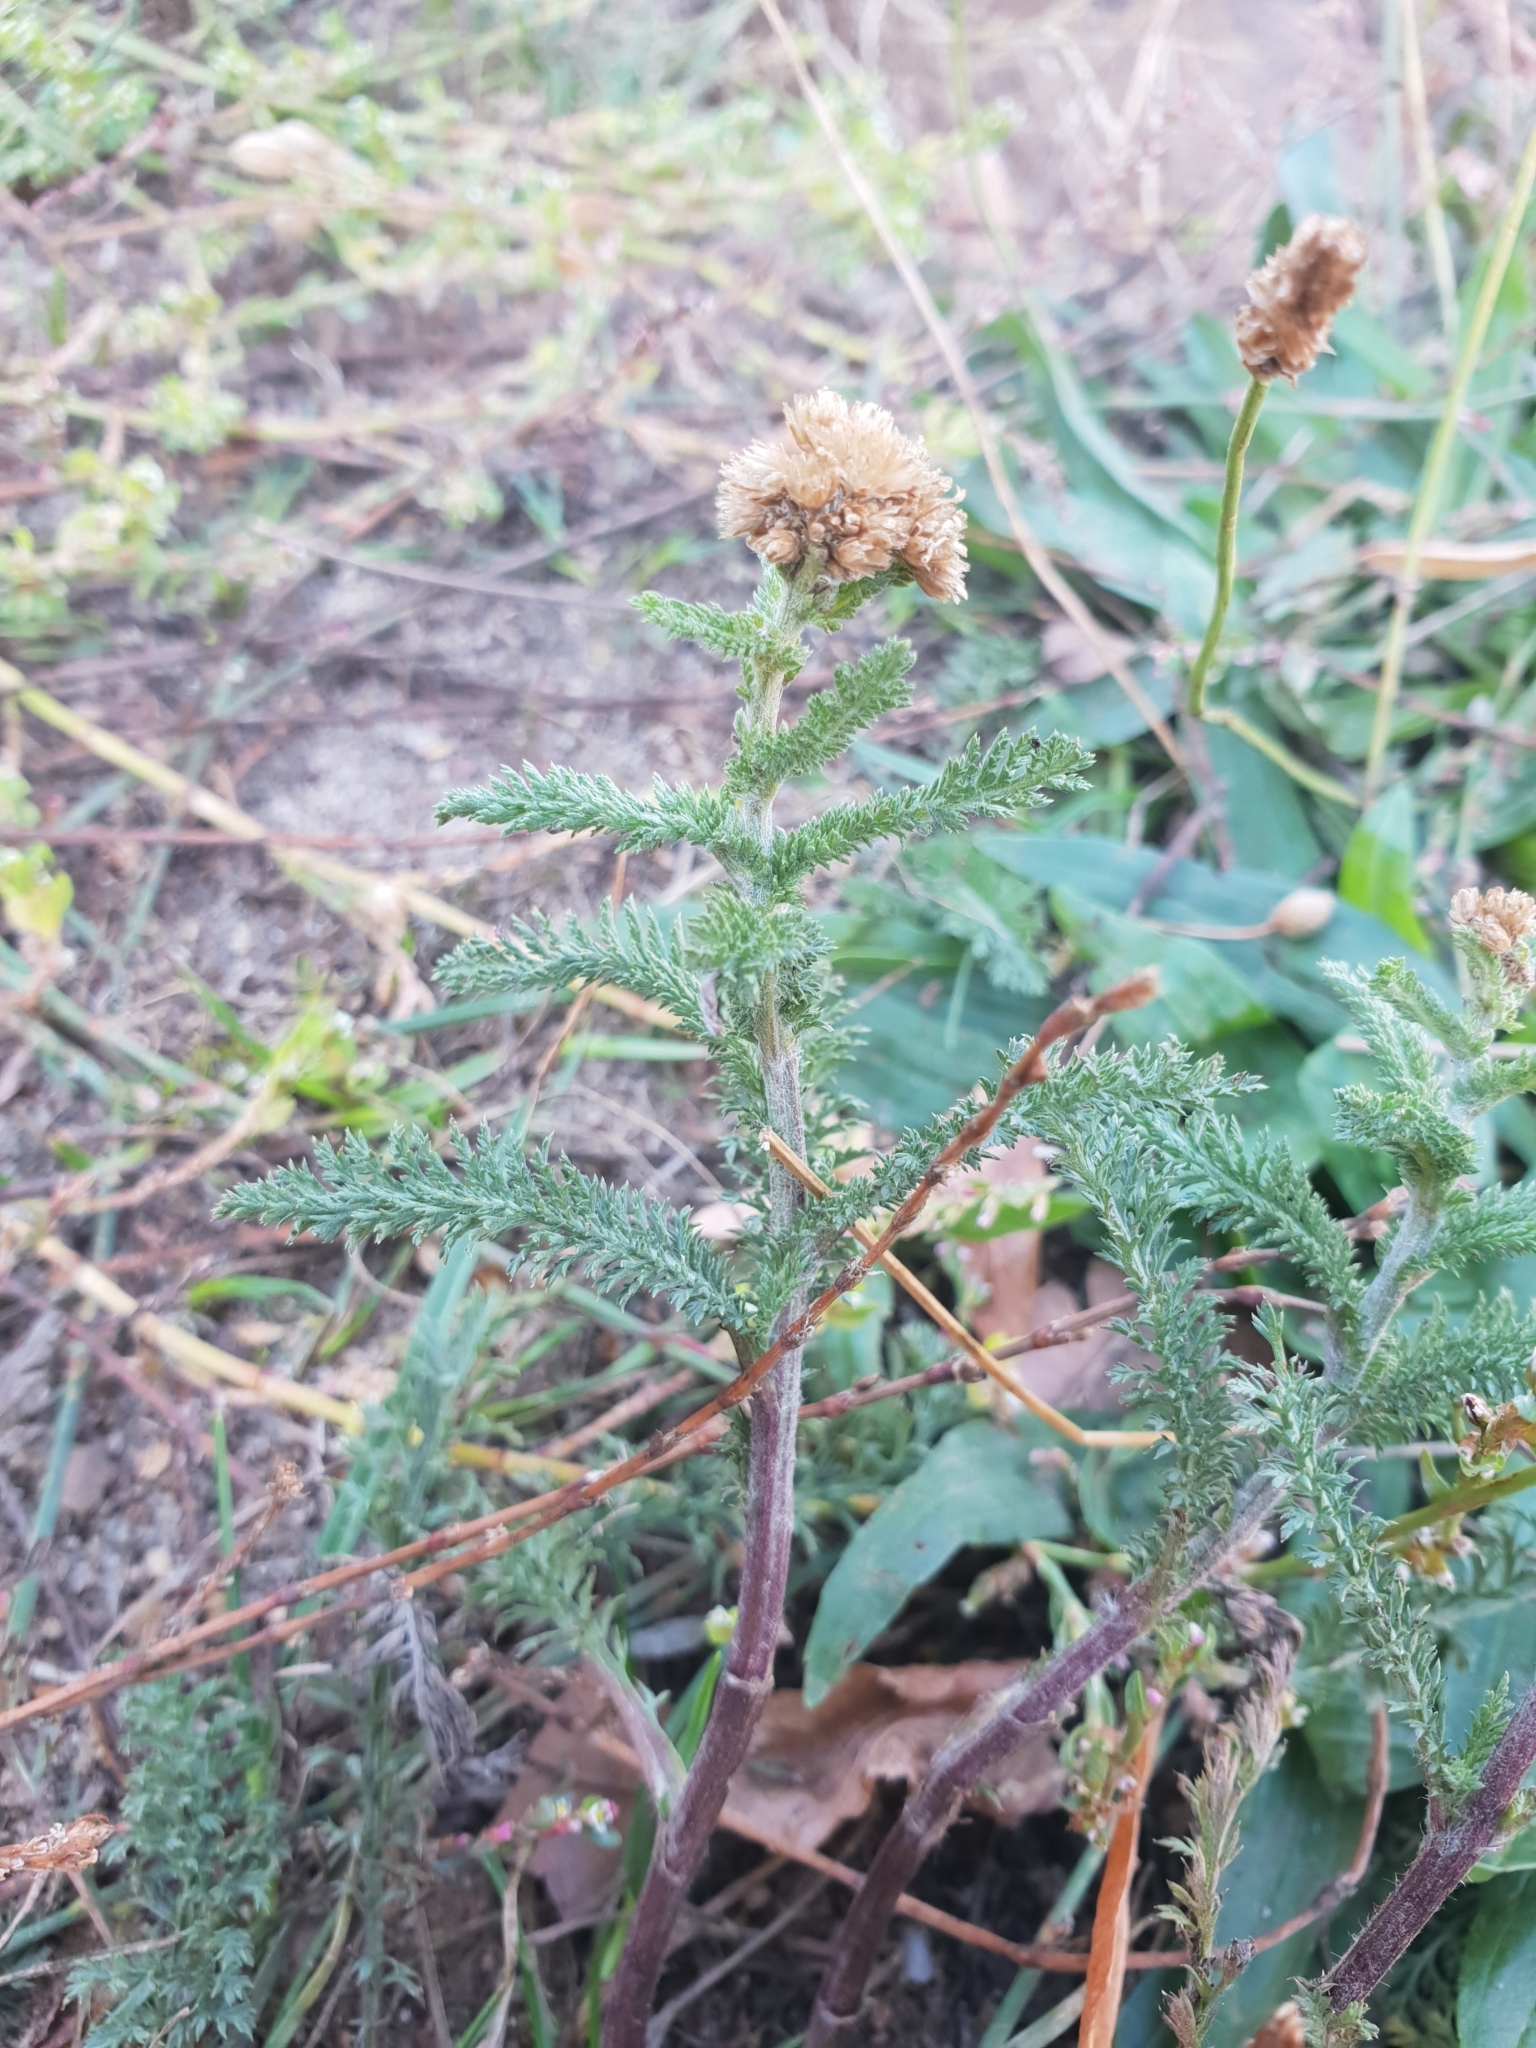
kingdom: Plantae
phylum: Tracheophyta
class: Magnoliopsida
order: Asterales
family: Asteraceae
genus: Achillea
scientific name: Achillea millefolium
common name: Yarrow
